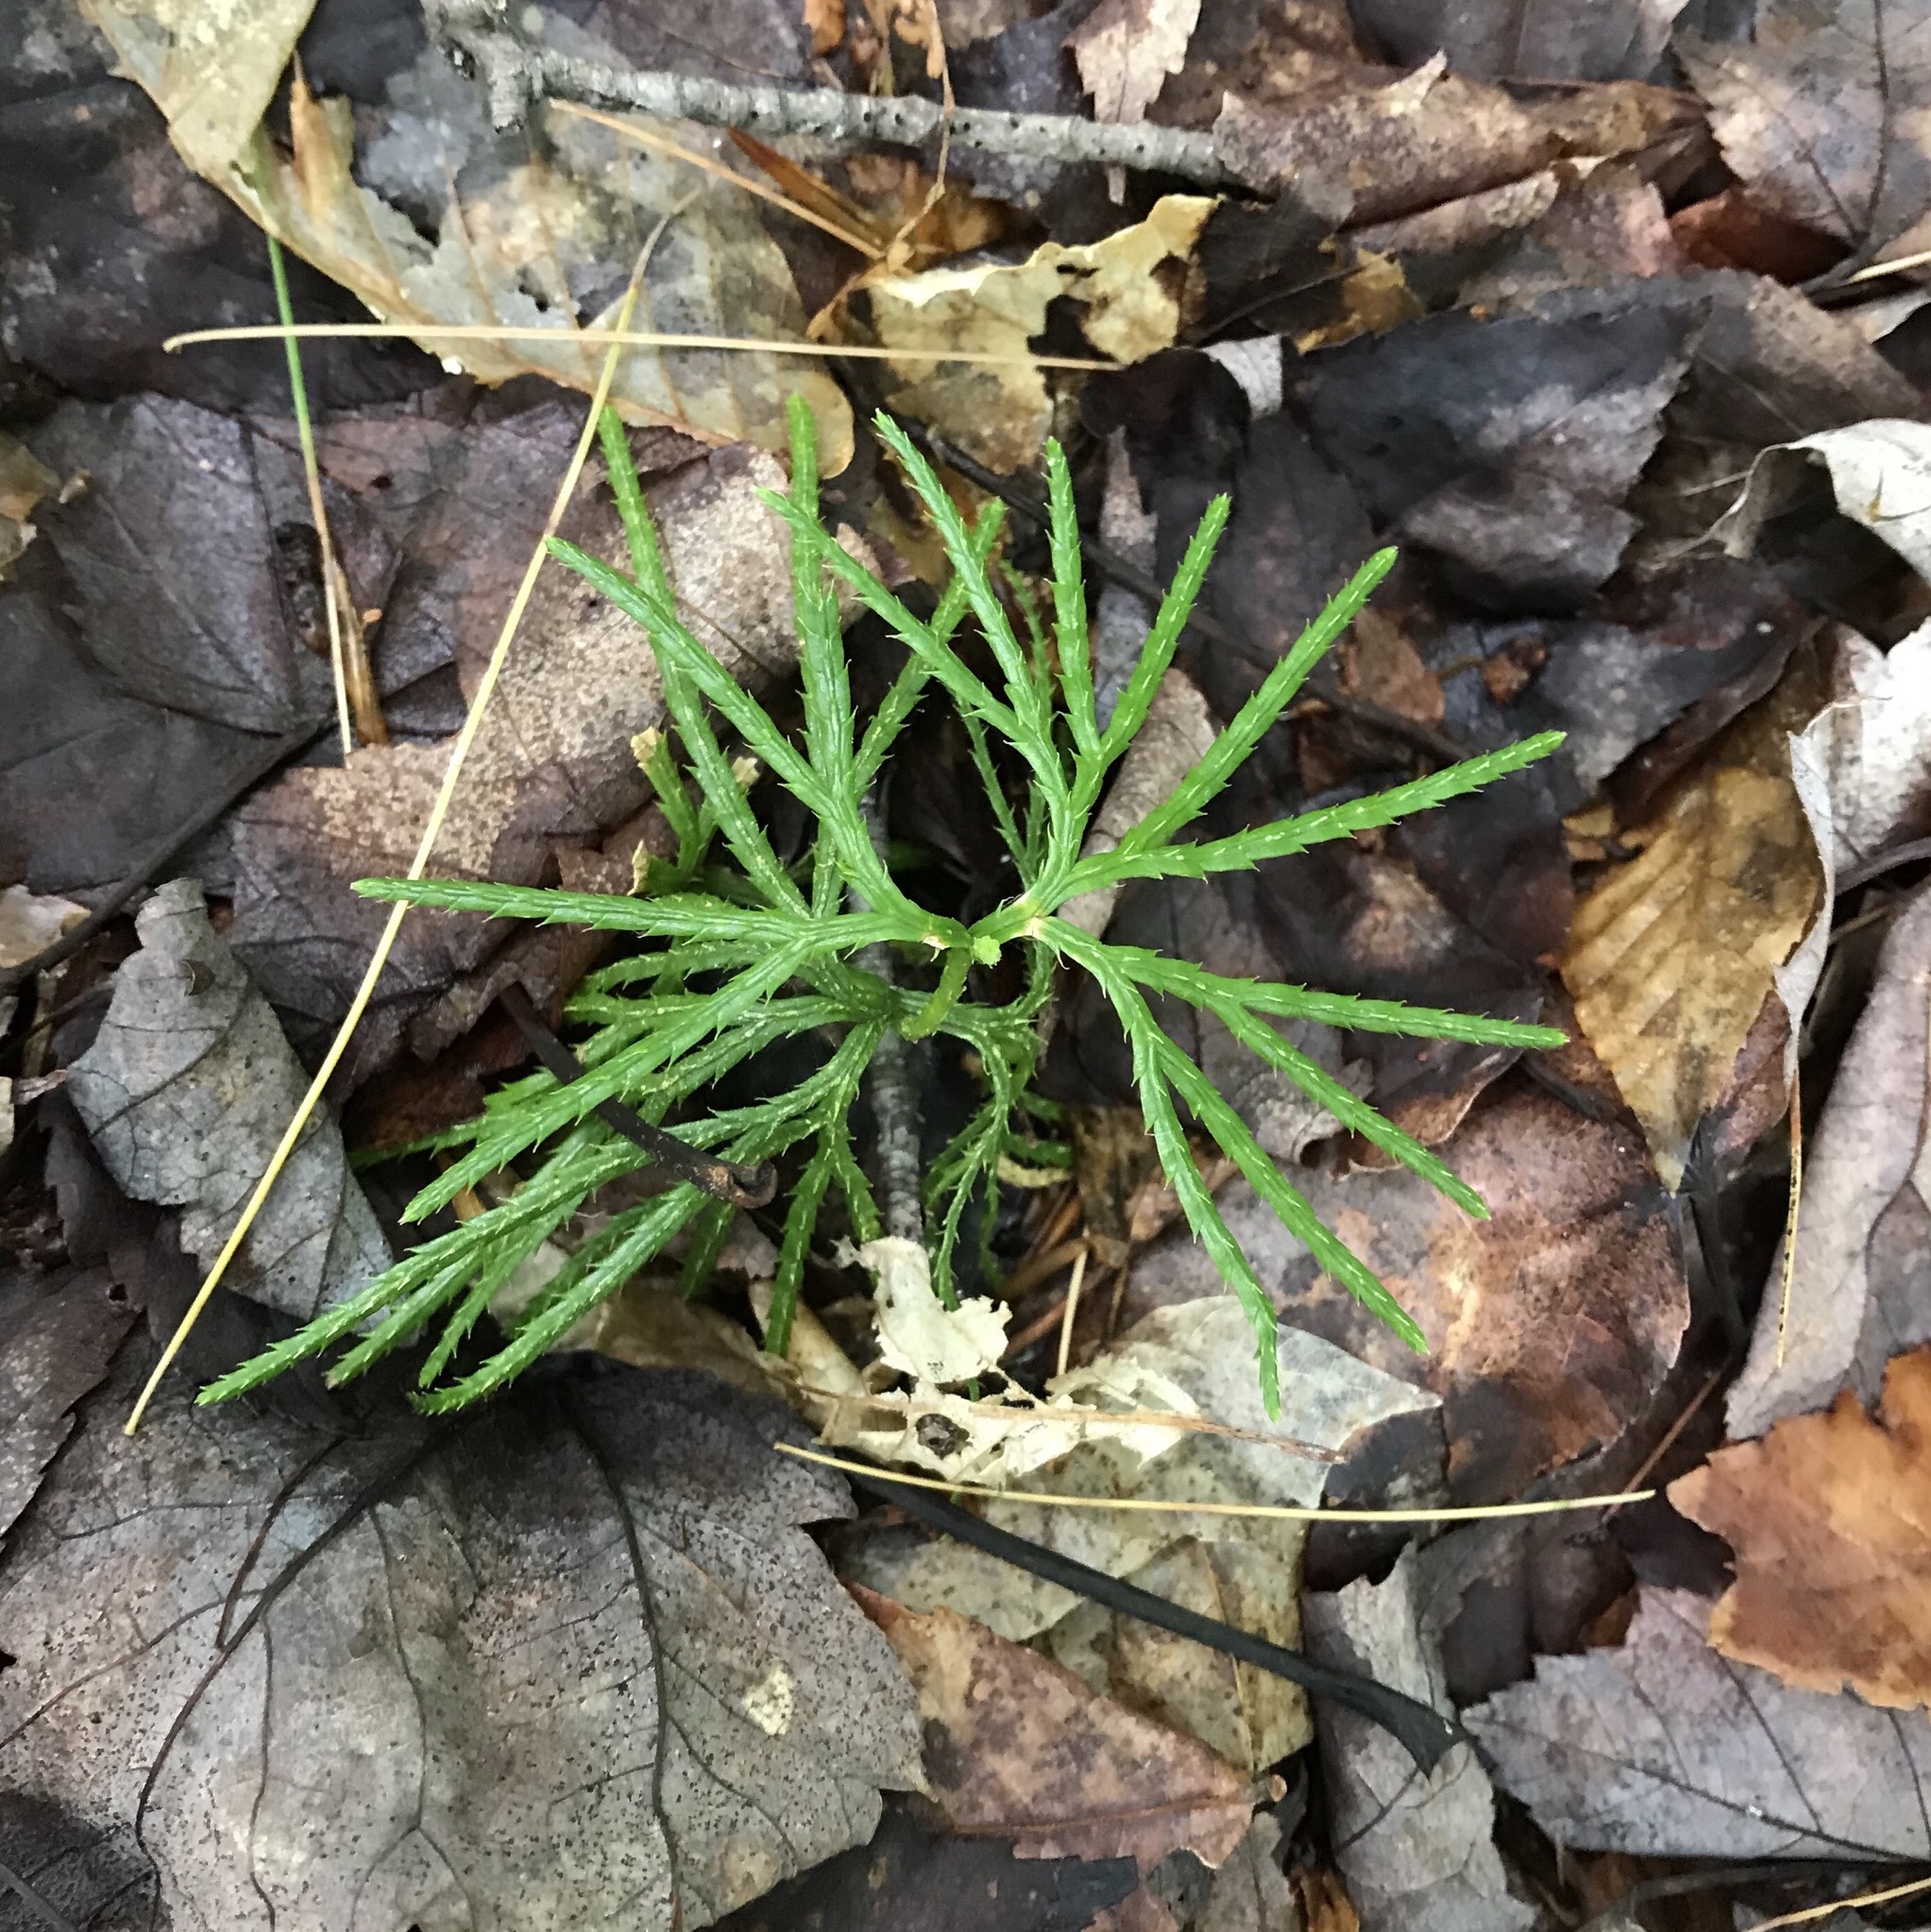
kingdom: Plantae
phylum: Tracheophyta
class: Lycopodiopsida
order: Lycopodiales
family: Lycopodiaceae
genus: Diphasiastrum
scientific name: Diphasiastrum digitatum
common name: Southern running-pine
